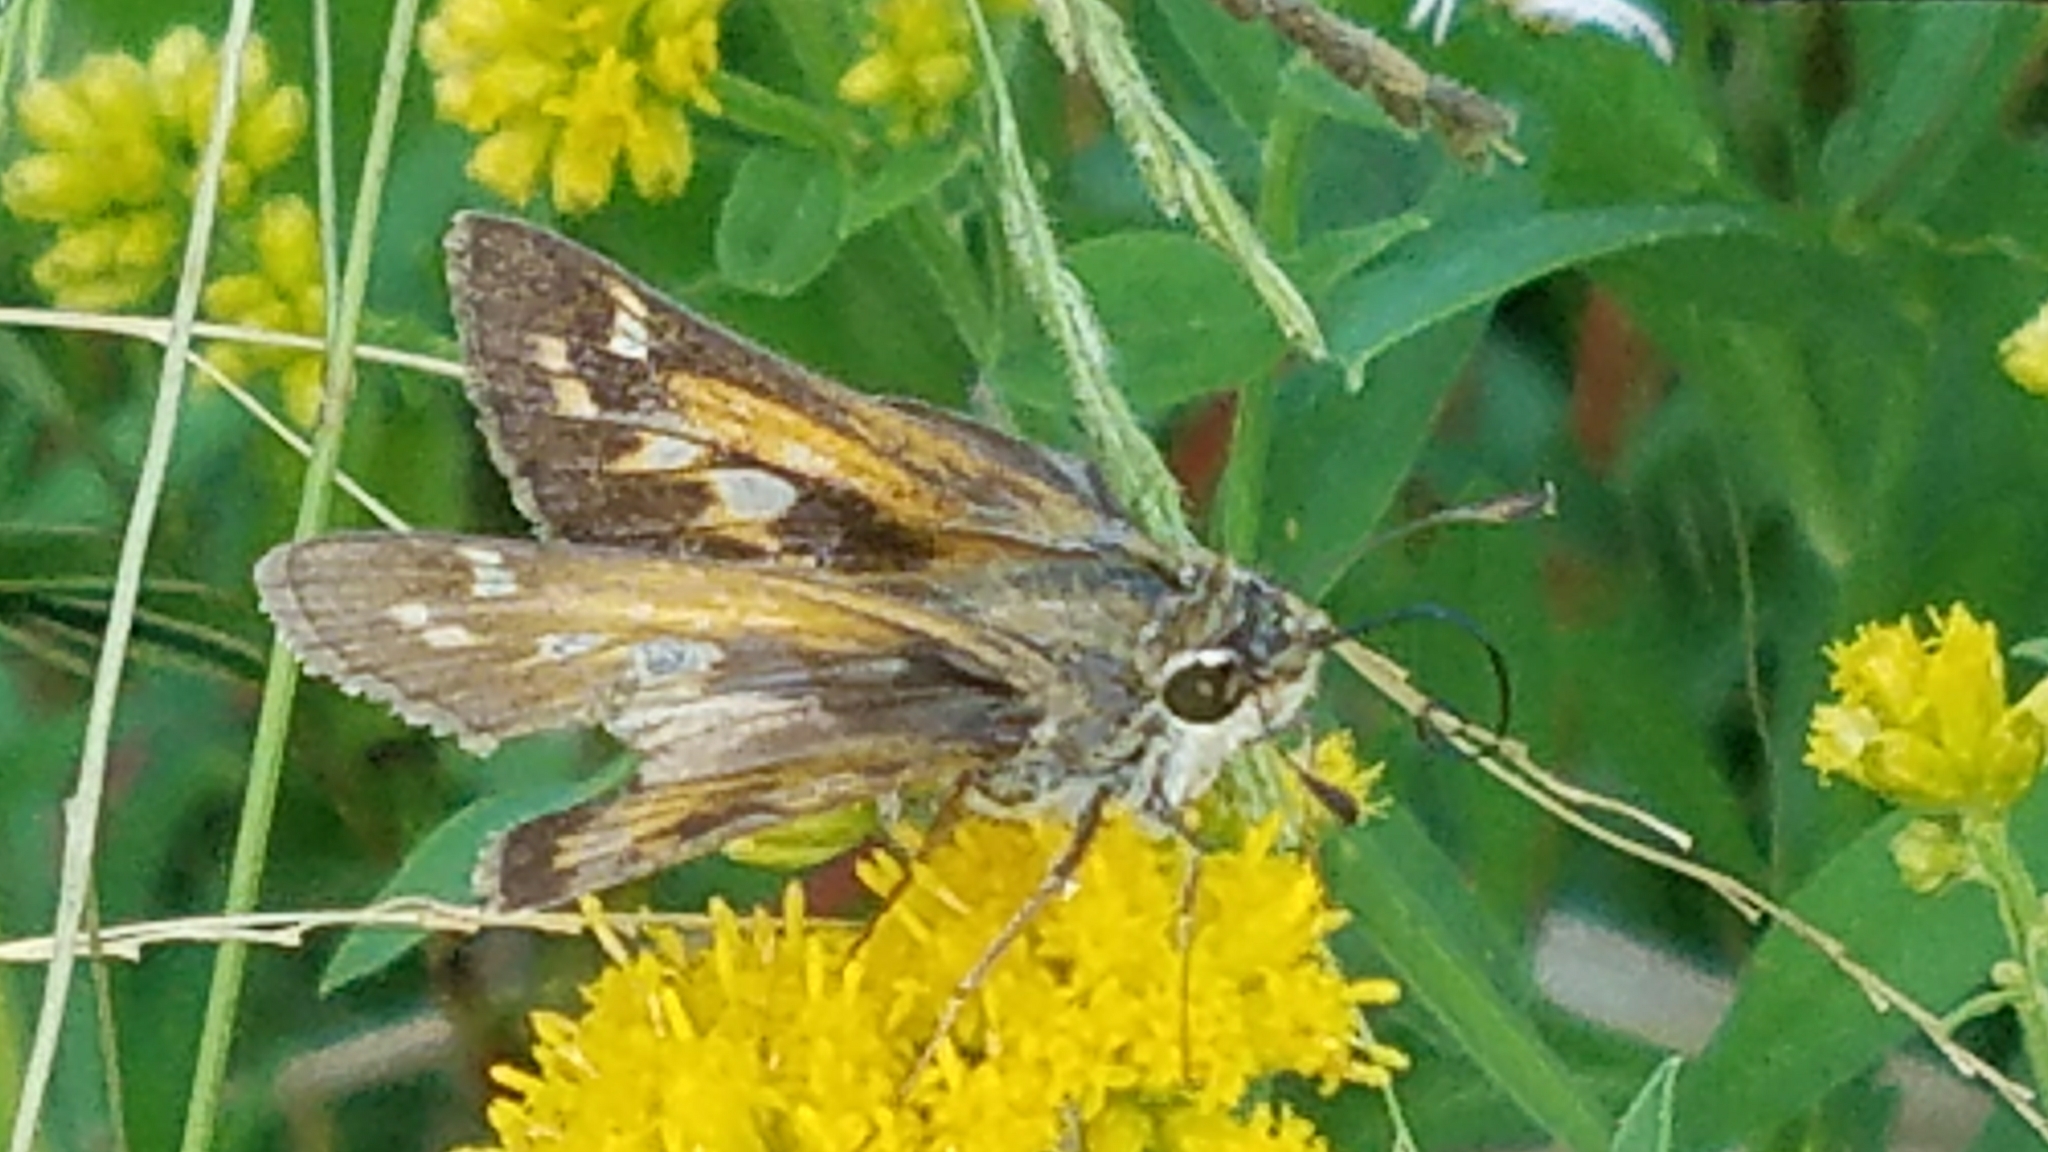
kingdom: Animalia
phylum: Arthropoda
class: Insecta
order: Lepidoptera
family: Hesperiidae
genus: Atalopedes
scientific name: Atalopedes
